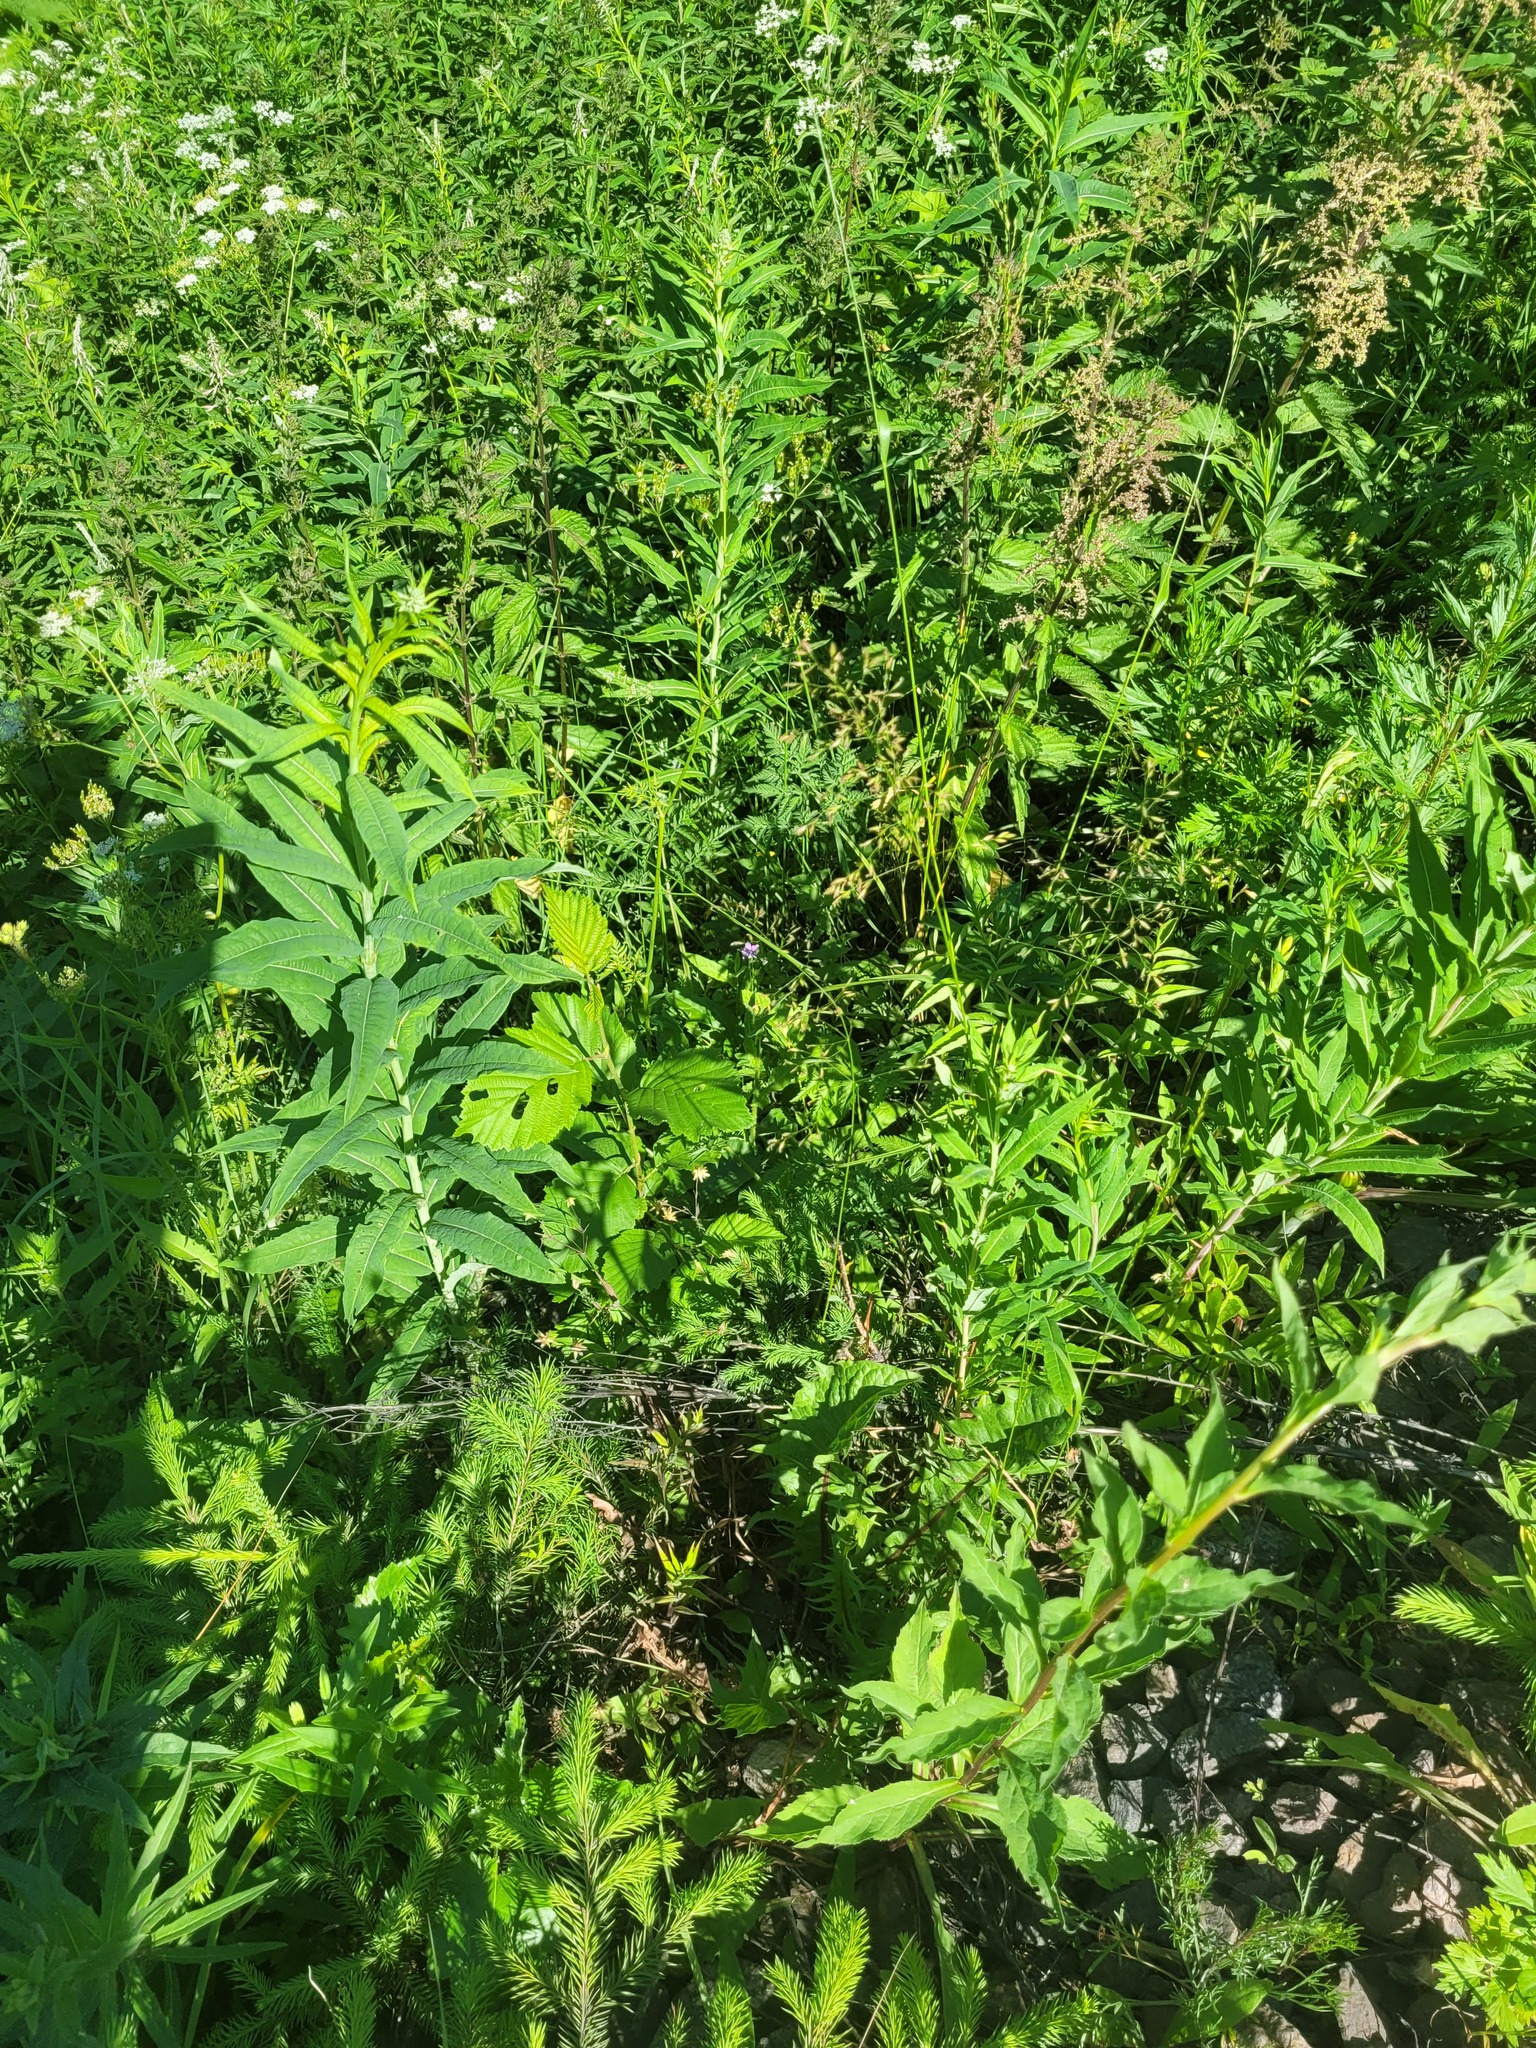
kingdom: Plantae
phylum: Tracheophyta
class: Magnoliopsida
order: Myrtales
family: Onagraceae
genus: Chamaenerion
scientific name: Chamaenerion angustifolium
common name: Fireweed
